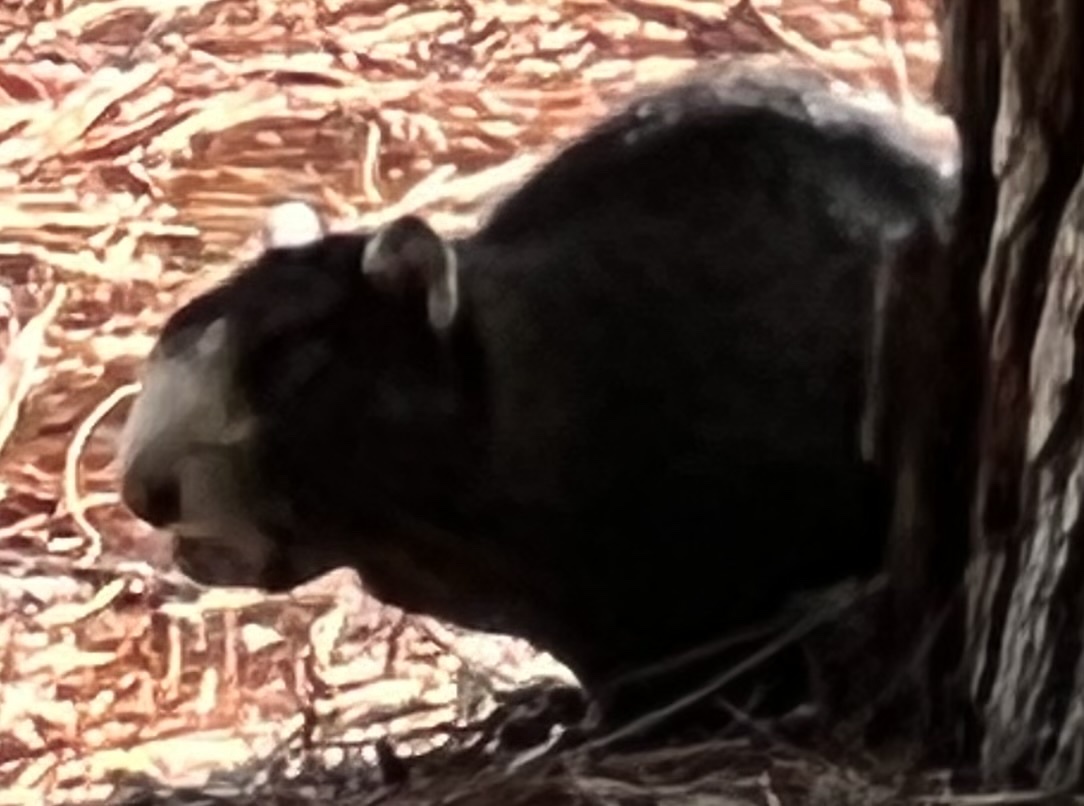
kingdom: Animalia
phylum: Chordata
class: Mammalia
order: Rodentia
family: Sciuridae
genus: Sciurus
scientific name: Sciurus niger
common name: Fox squirrel
